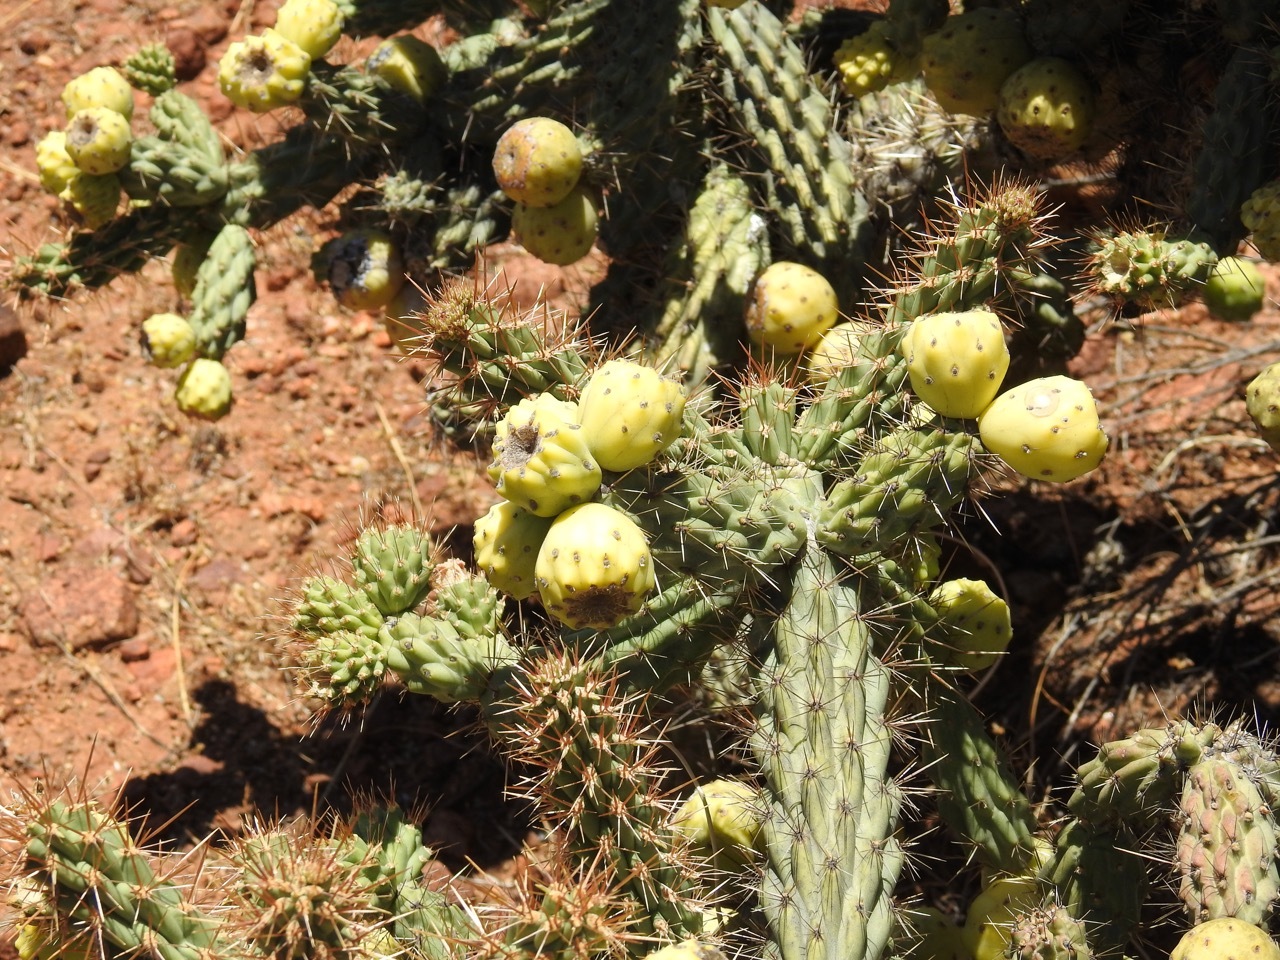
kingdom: Plantae
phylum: Tracheophyta
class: Magnoliopsida
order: Caryophyllales
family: Cactaceae
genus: Cylindropuntia
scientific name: Cylindropuntia alcahes
